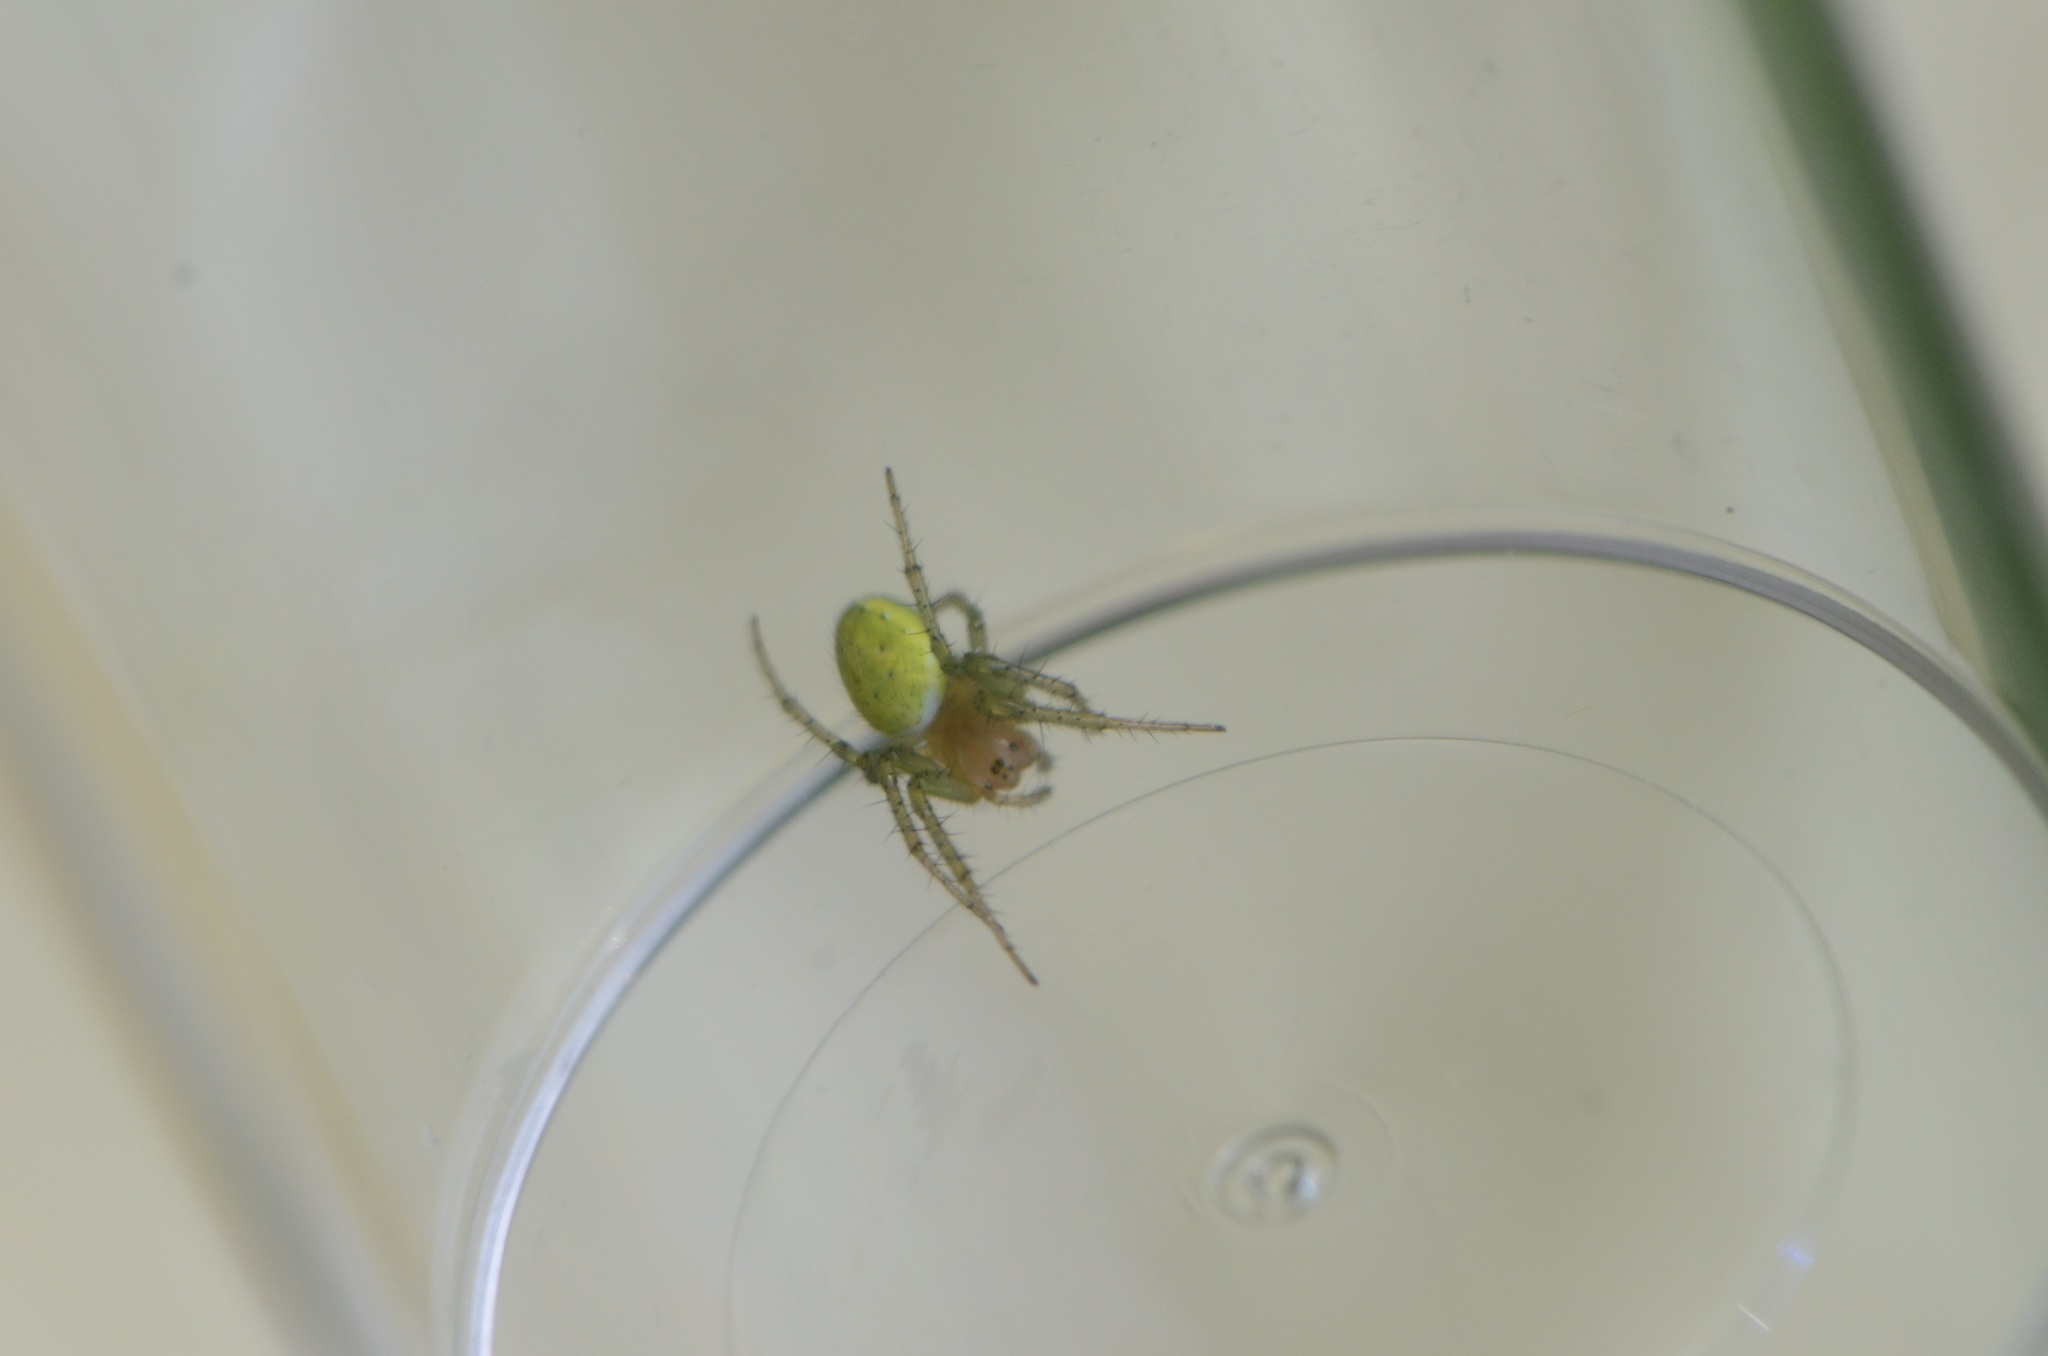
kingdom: Animalia
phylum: Arthropoda
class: Arachnida
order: Araneae
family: Araneidae
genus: Araniella
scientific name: Araniella cucurbitina
